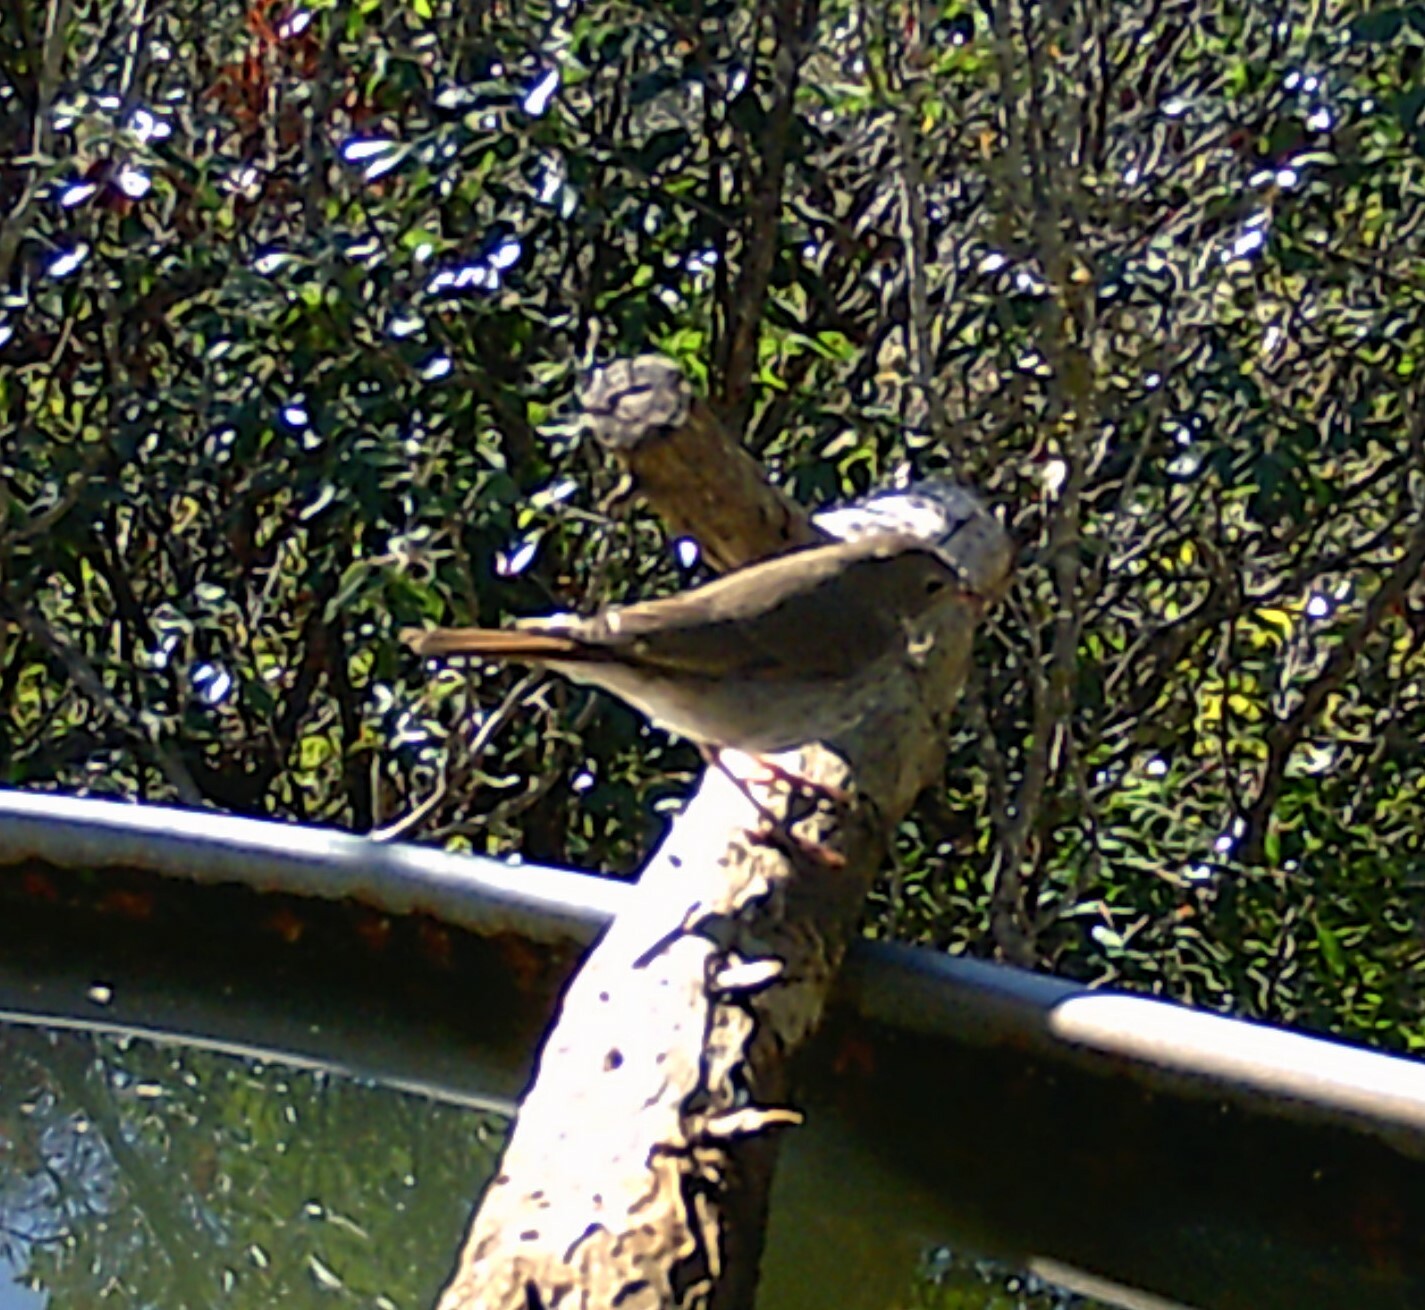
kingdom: Animalia
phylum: Chordata
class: Aves
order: Passeriformes
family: Turdidae
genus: Catharus
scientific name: Catharus guttatus
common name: Hermit thrush
